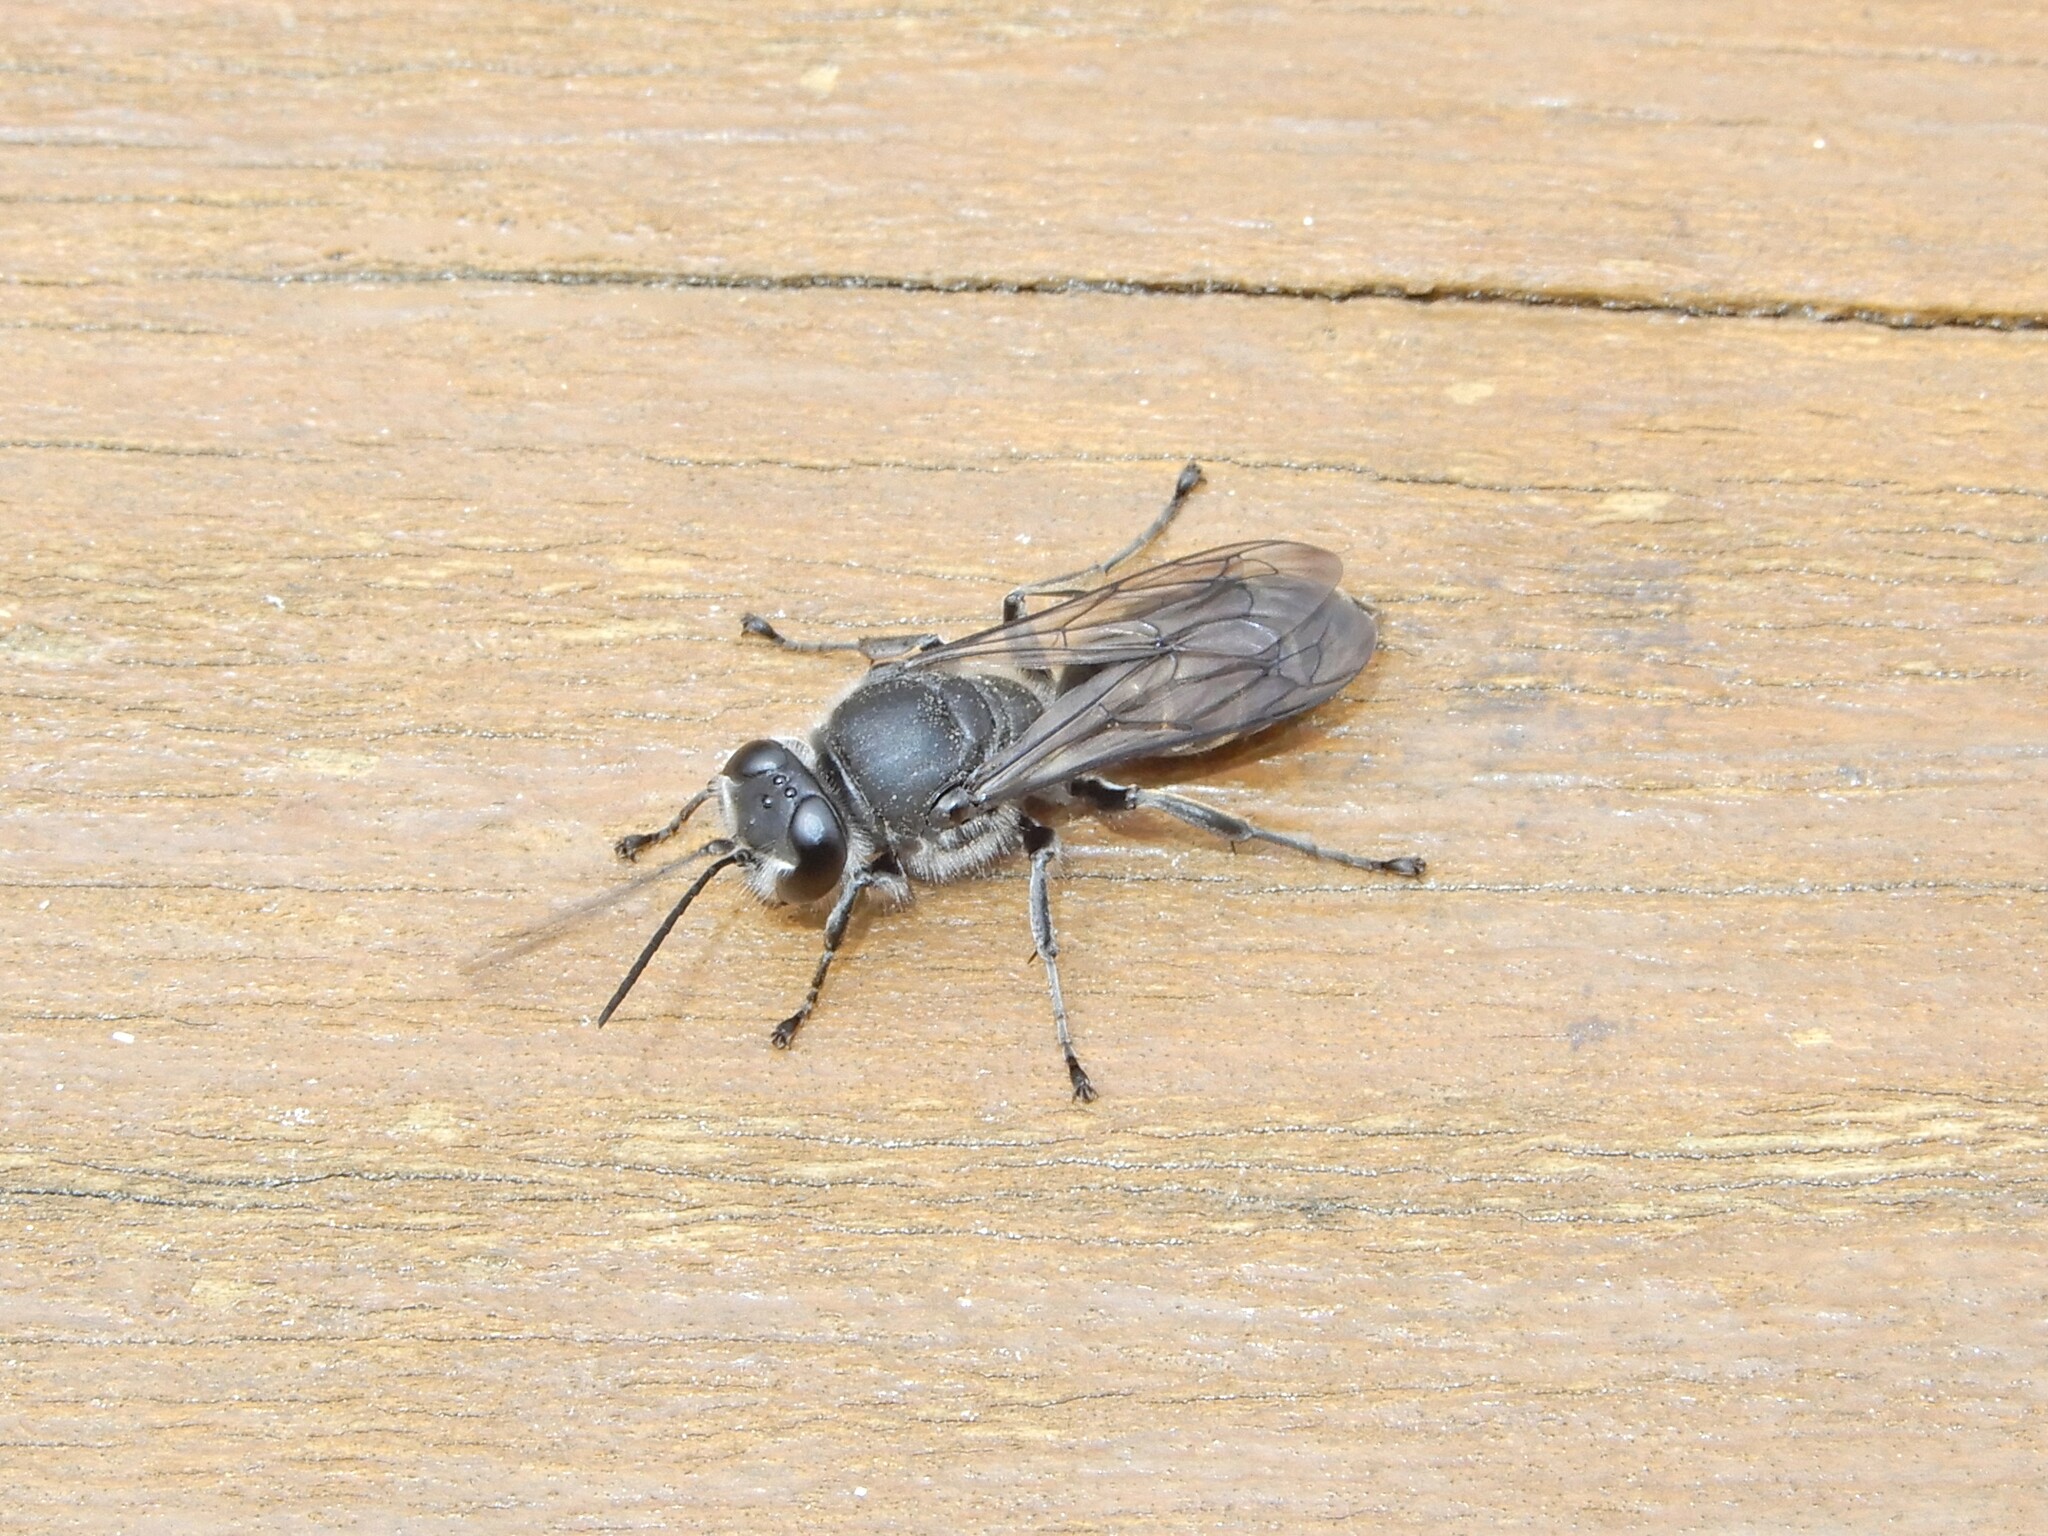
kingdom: Animalia
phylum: Arthropoda
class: Insecta
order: Hymenoptera
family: Crabronidae
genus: Pison
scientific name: Pison spinolae
